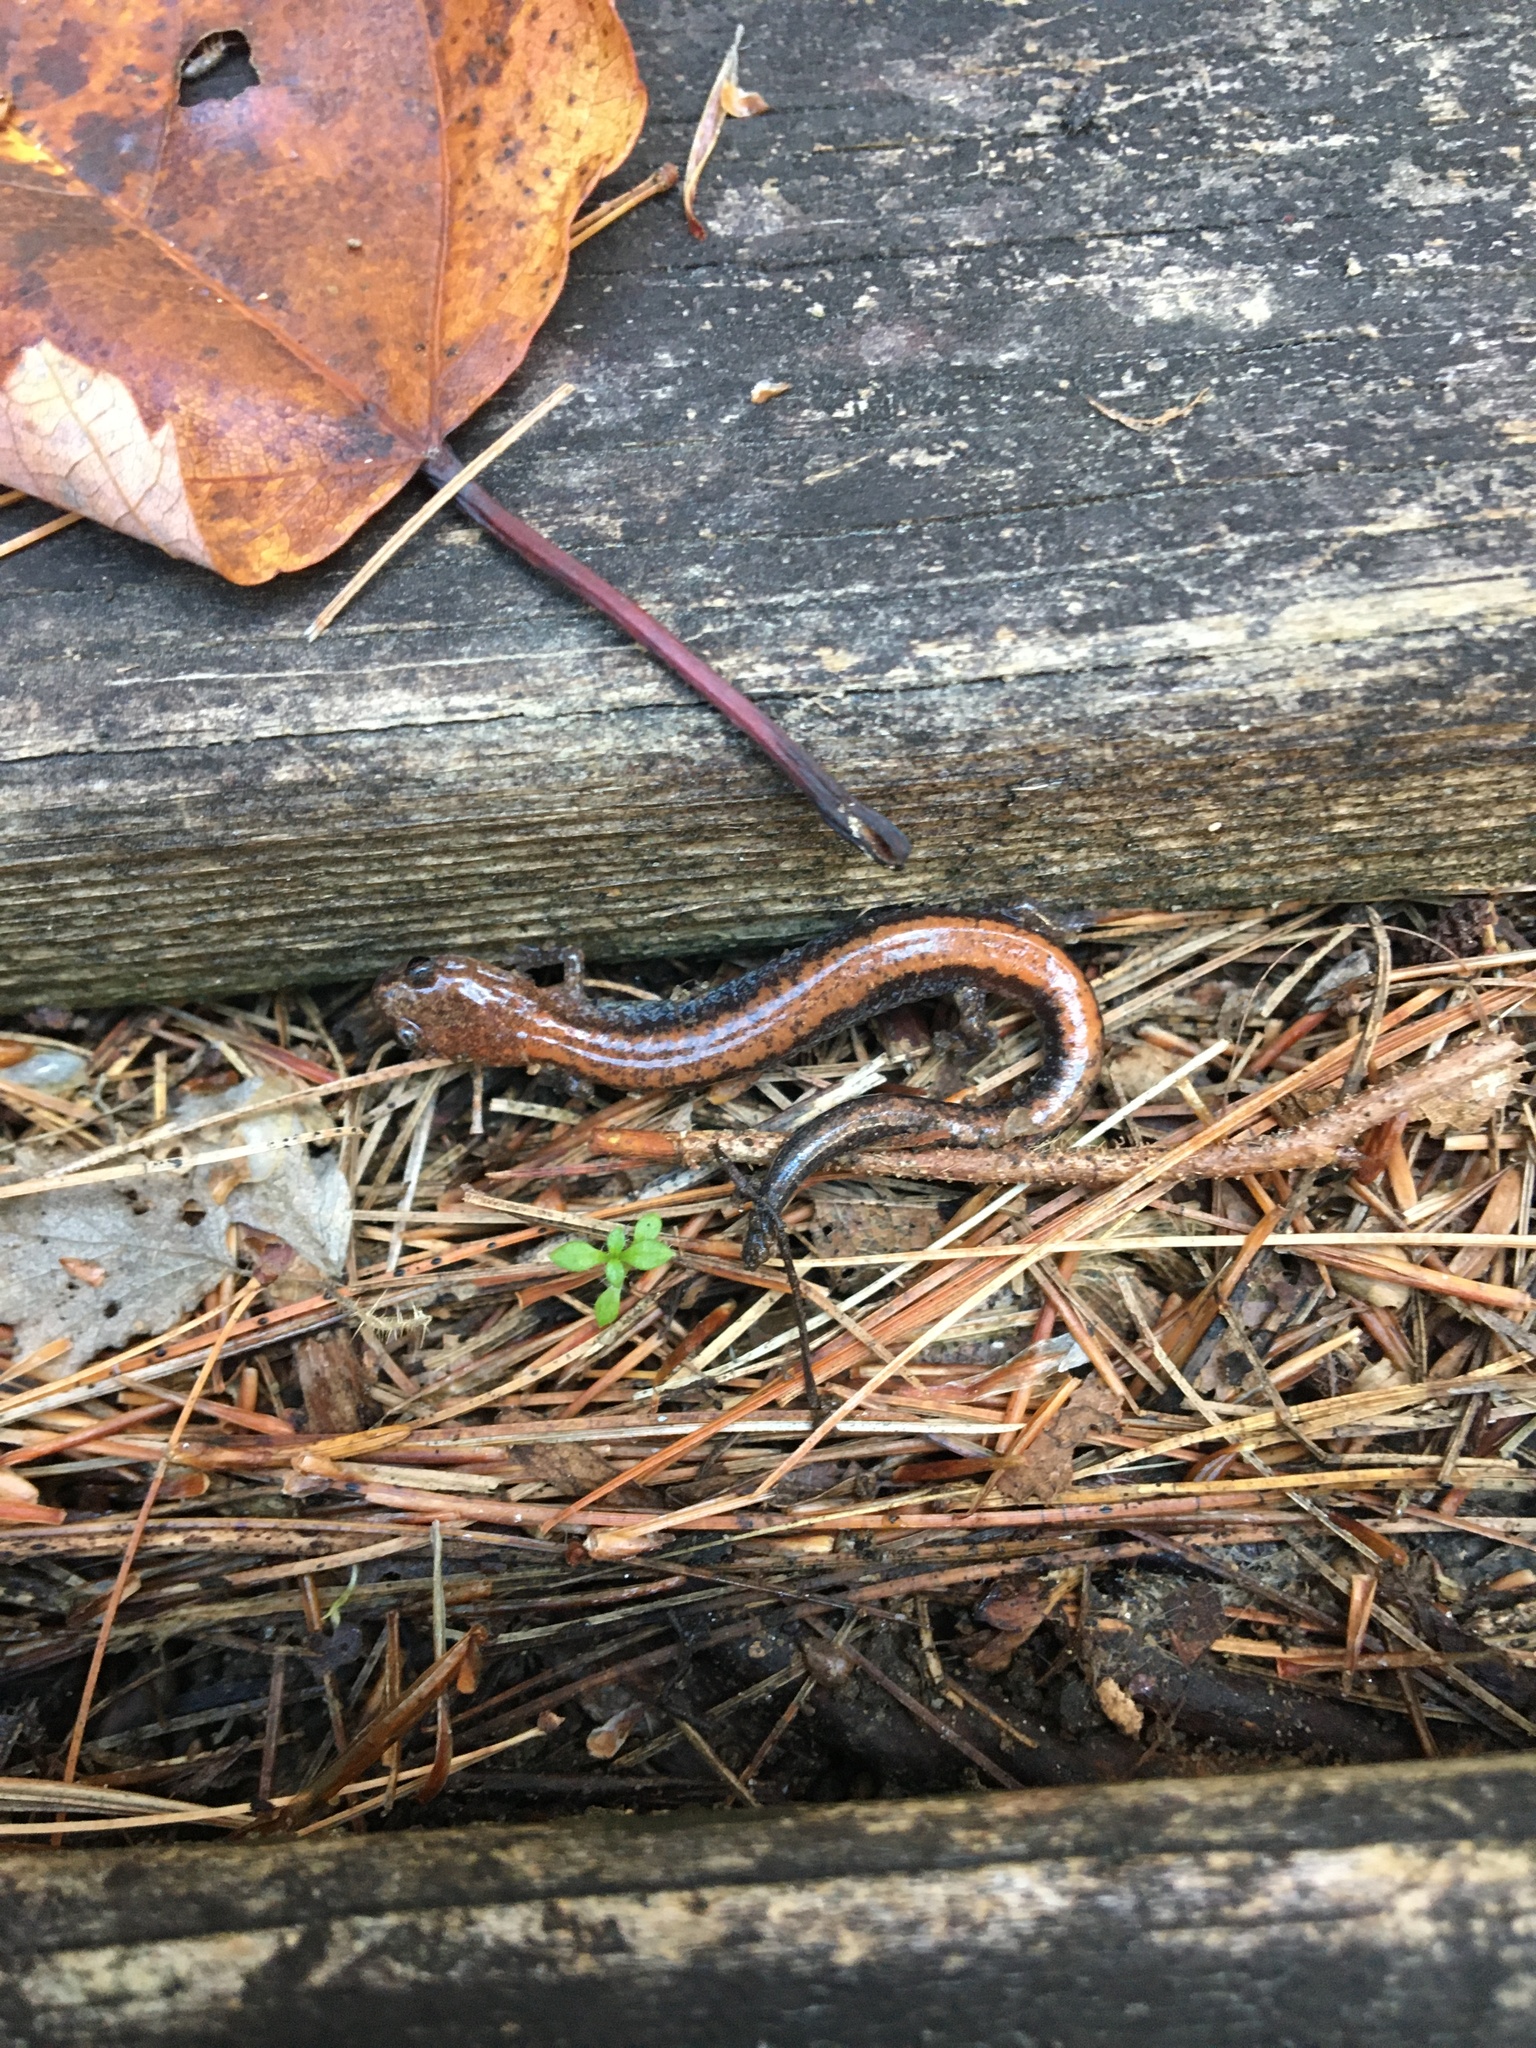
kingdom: Animalia
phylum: Chordata
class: Amphibia
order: Caudata
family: Plethodontidae
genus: Plethodon
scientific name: Plethodon cinereus
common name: Redback salamander
